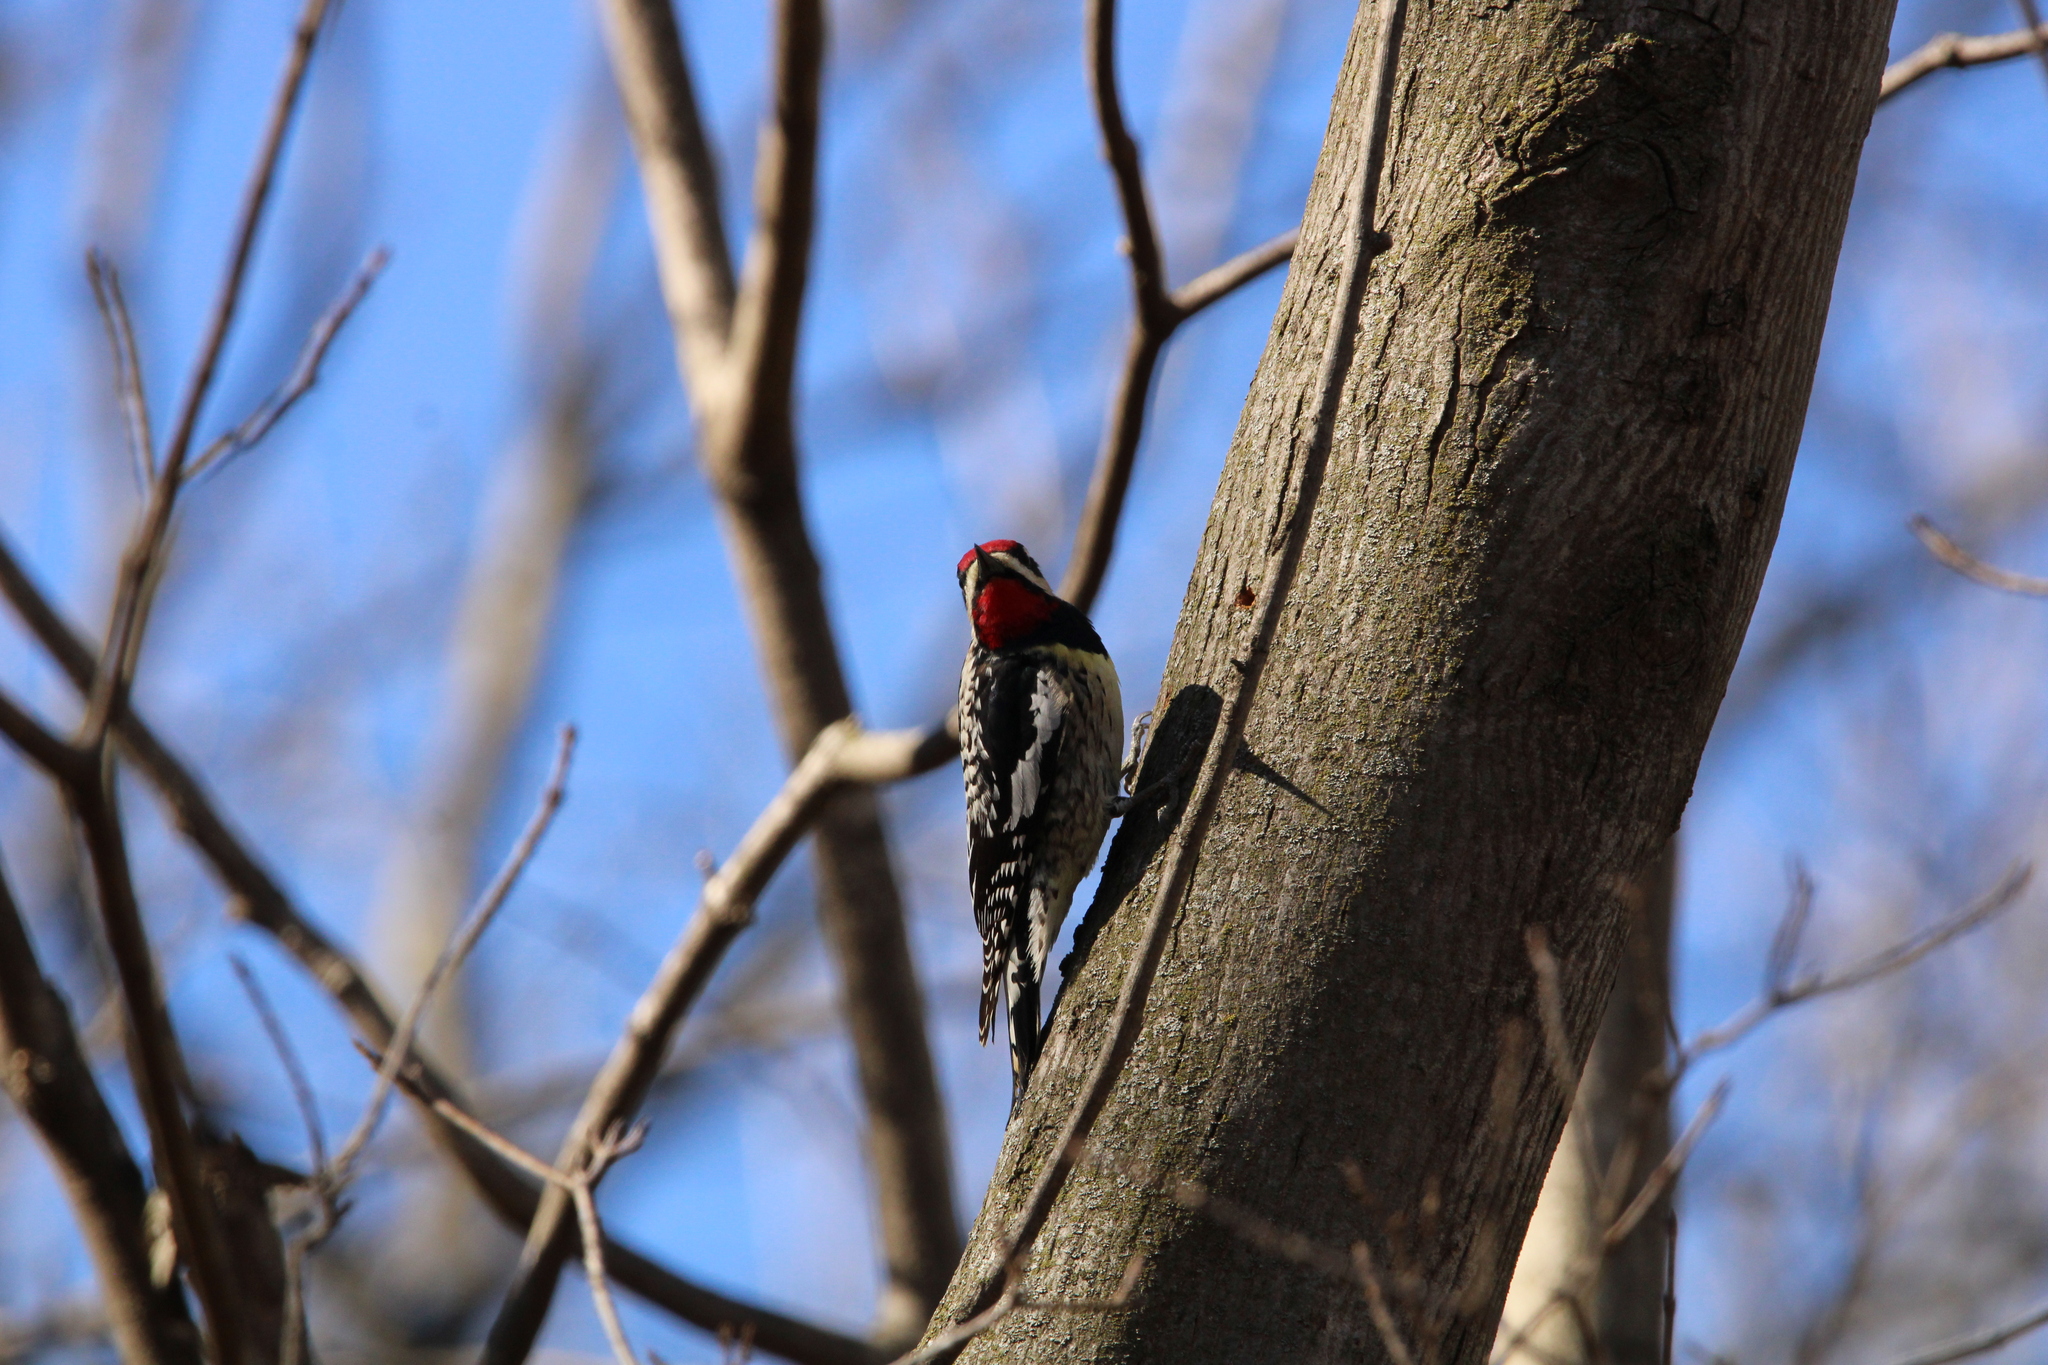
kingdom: Animalia
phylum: Chordata
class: Aves
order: Piciformes
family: Picidae
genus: Sphyrapicus
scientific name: Sphyrapicus varius
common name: Yellow-bellied sapsucker
